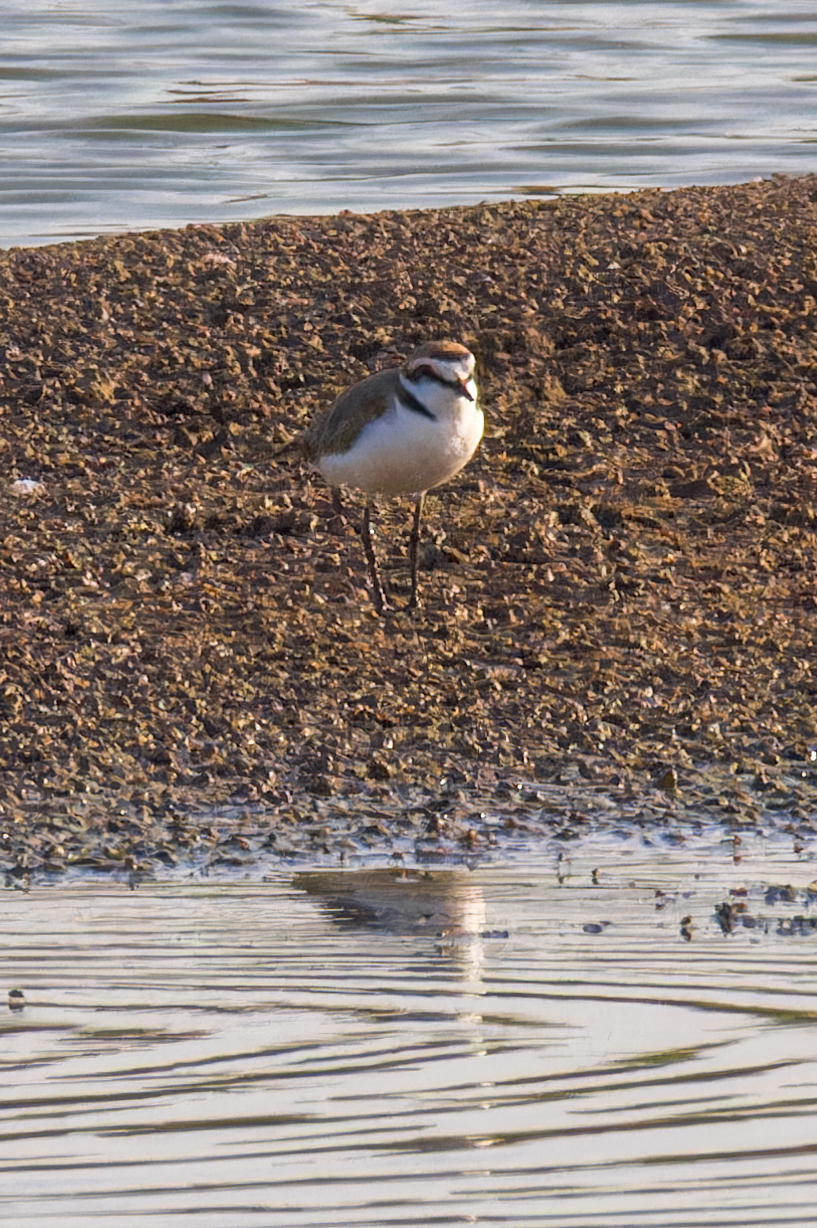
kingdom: Animalia
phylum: Chordata
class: Aves
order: Charadriiformes
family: Charadriidae
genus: Charadrius
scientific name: Charadrius alexandrinus
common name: Kentish plover
